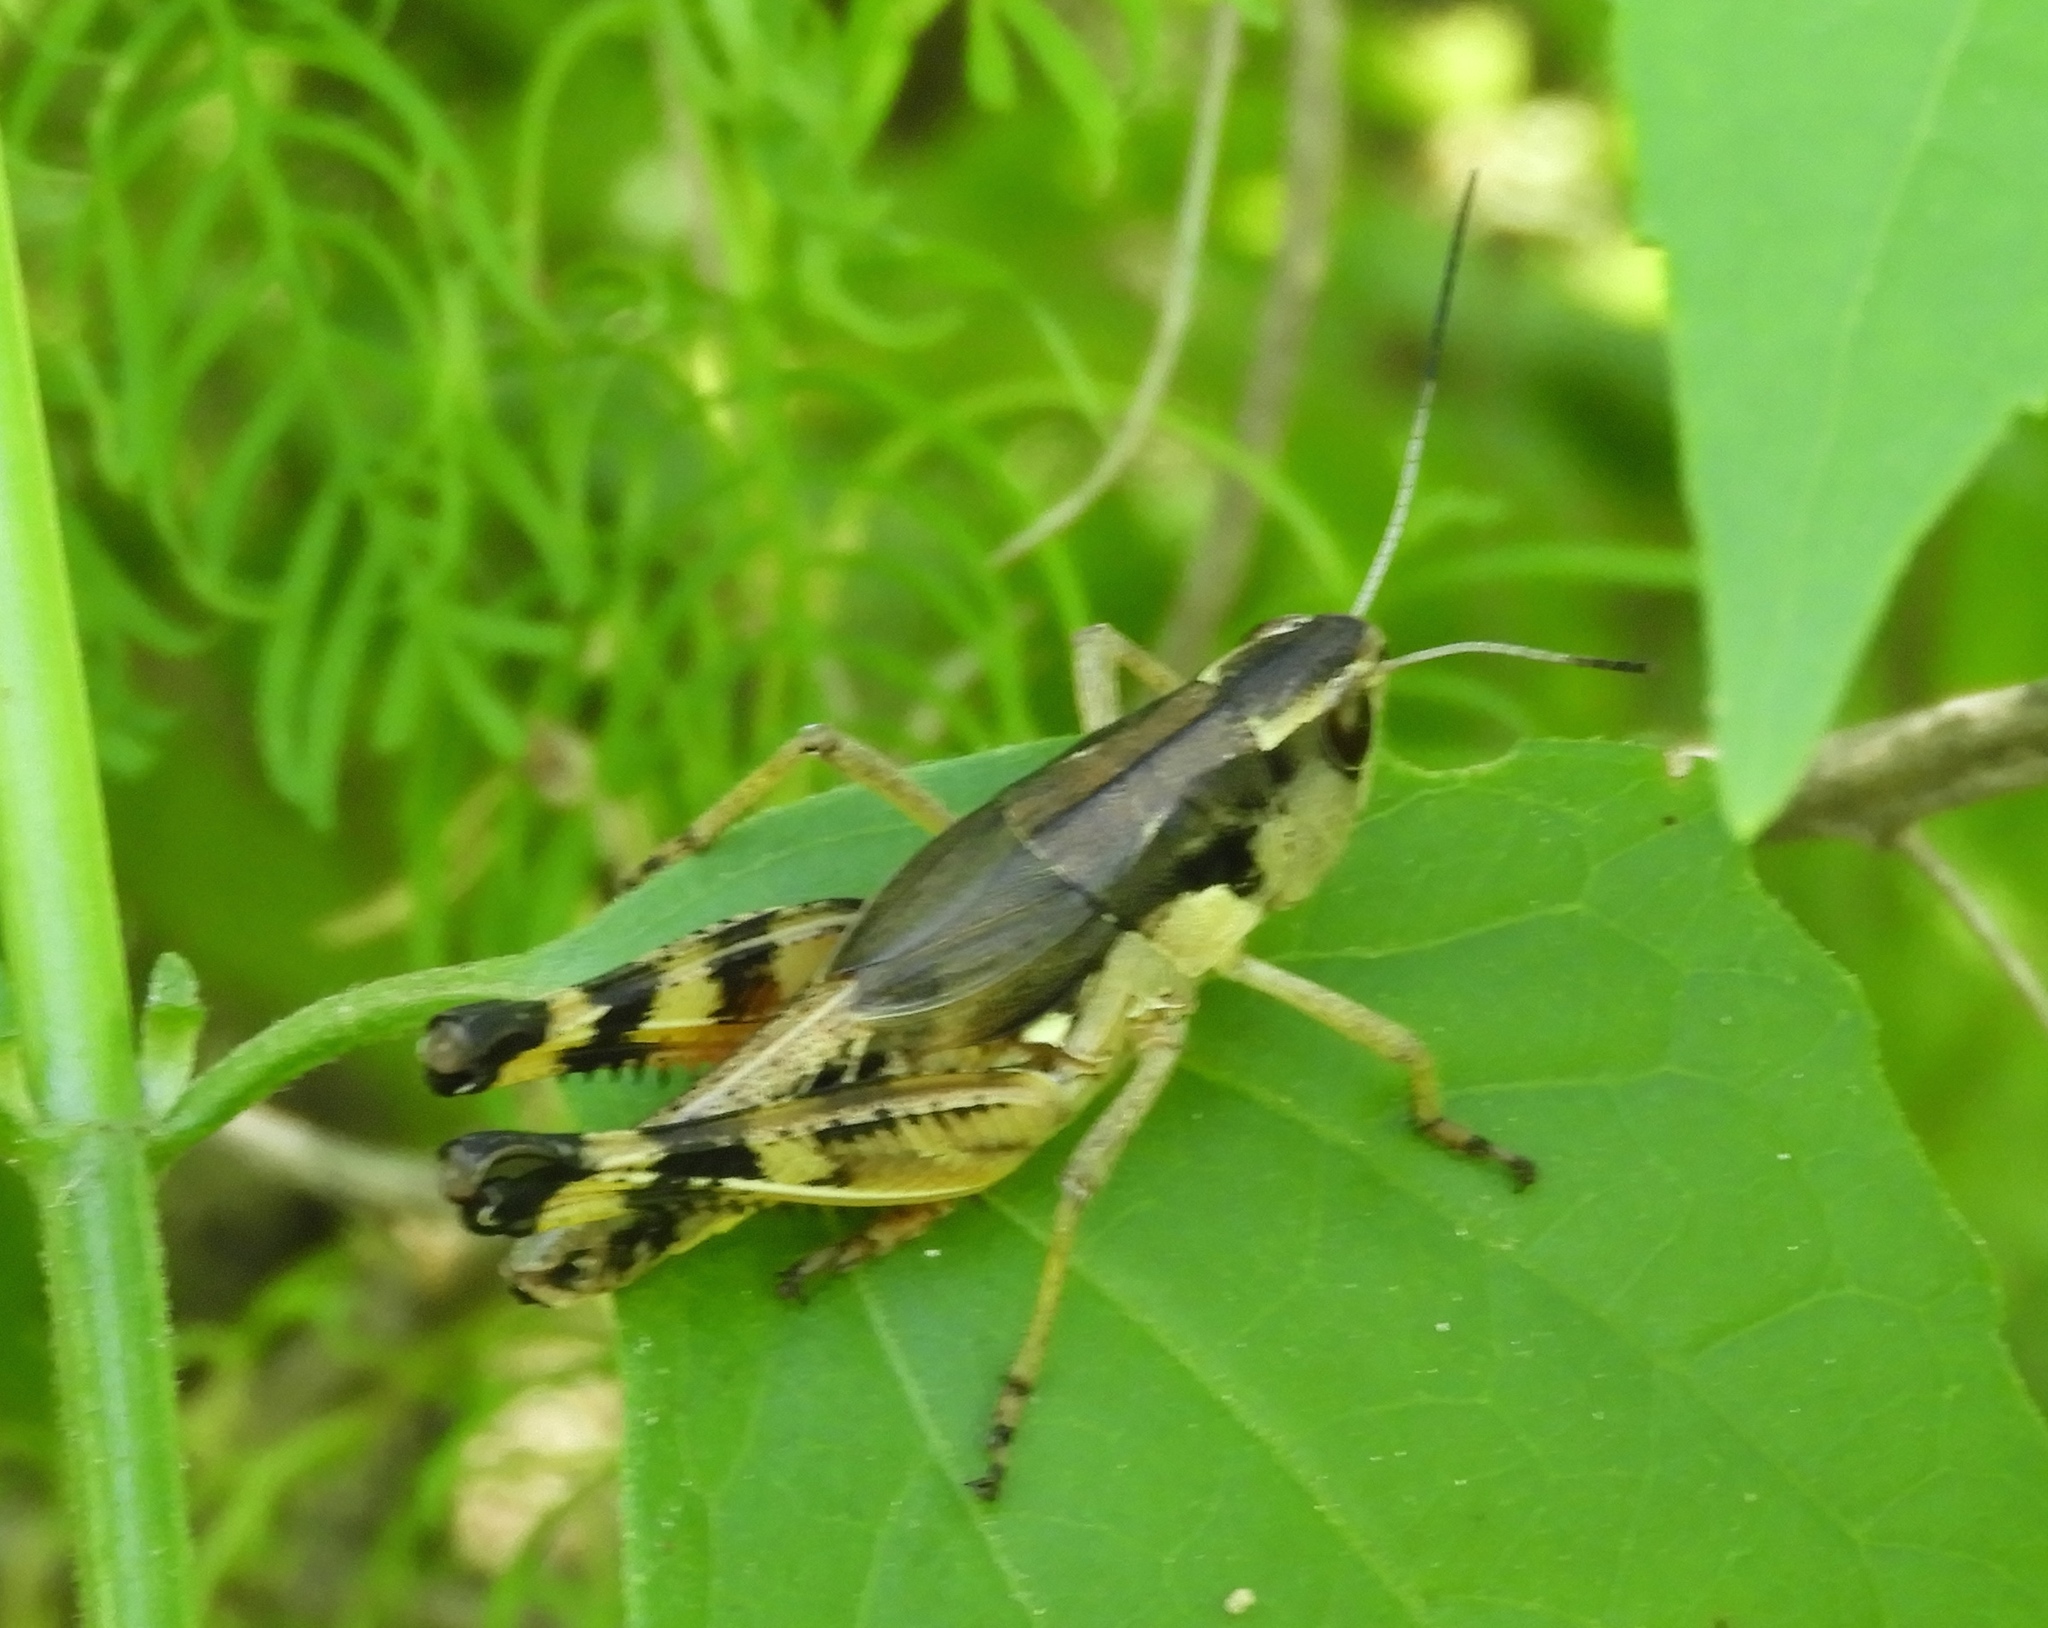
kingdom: Animalia
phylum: Arthropoda
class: Insecta
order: Orthoptera
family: Acrididae
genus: Boopedon
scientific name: Boopedon flaviventris
